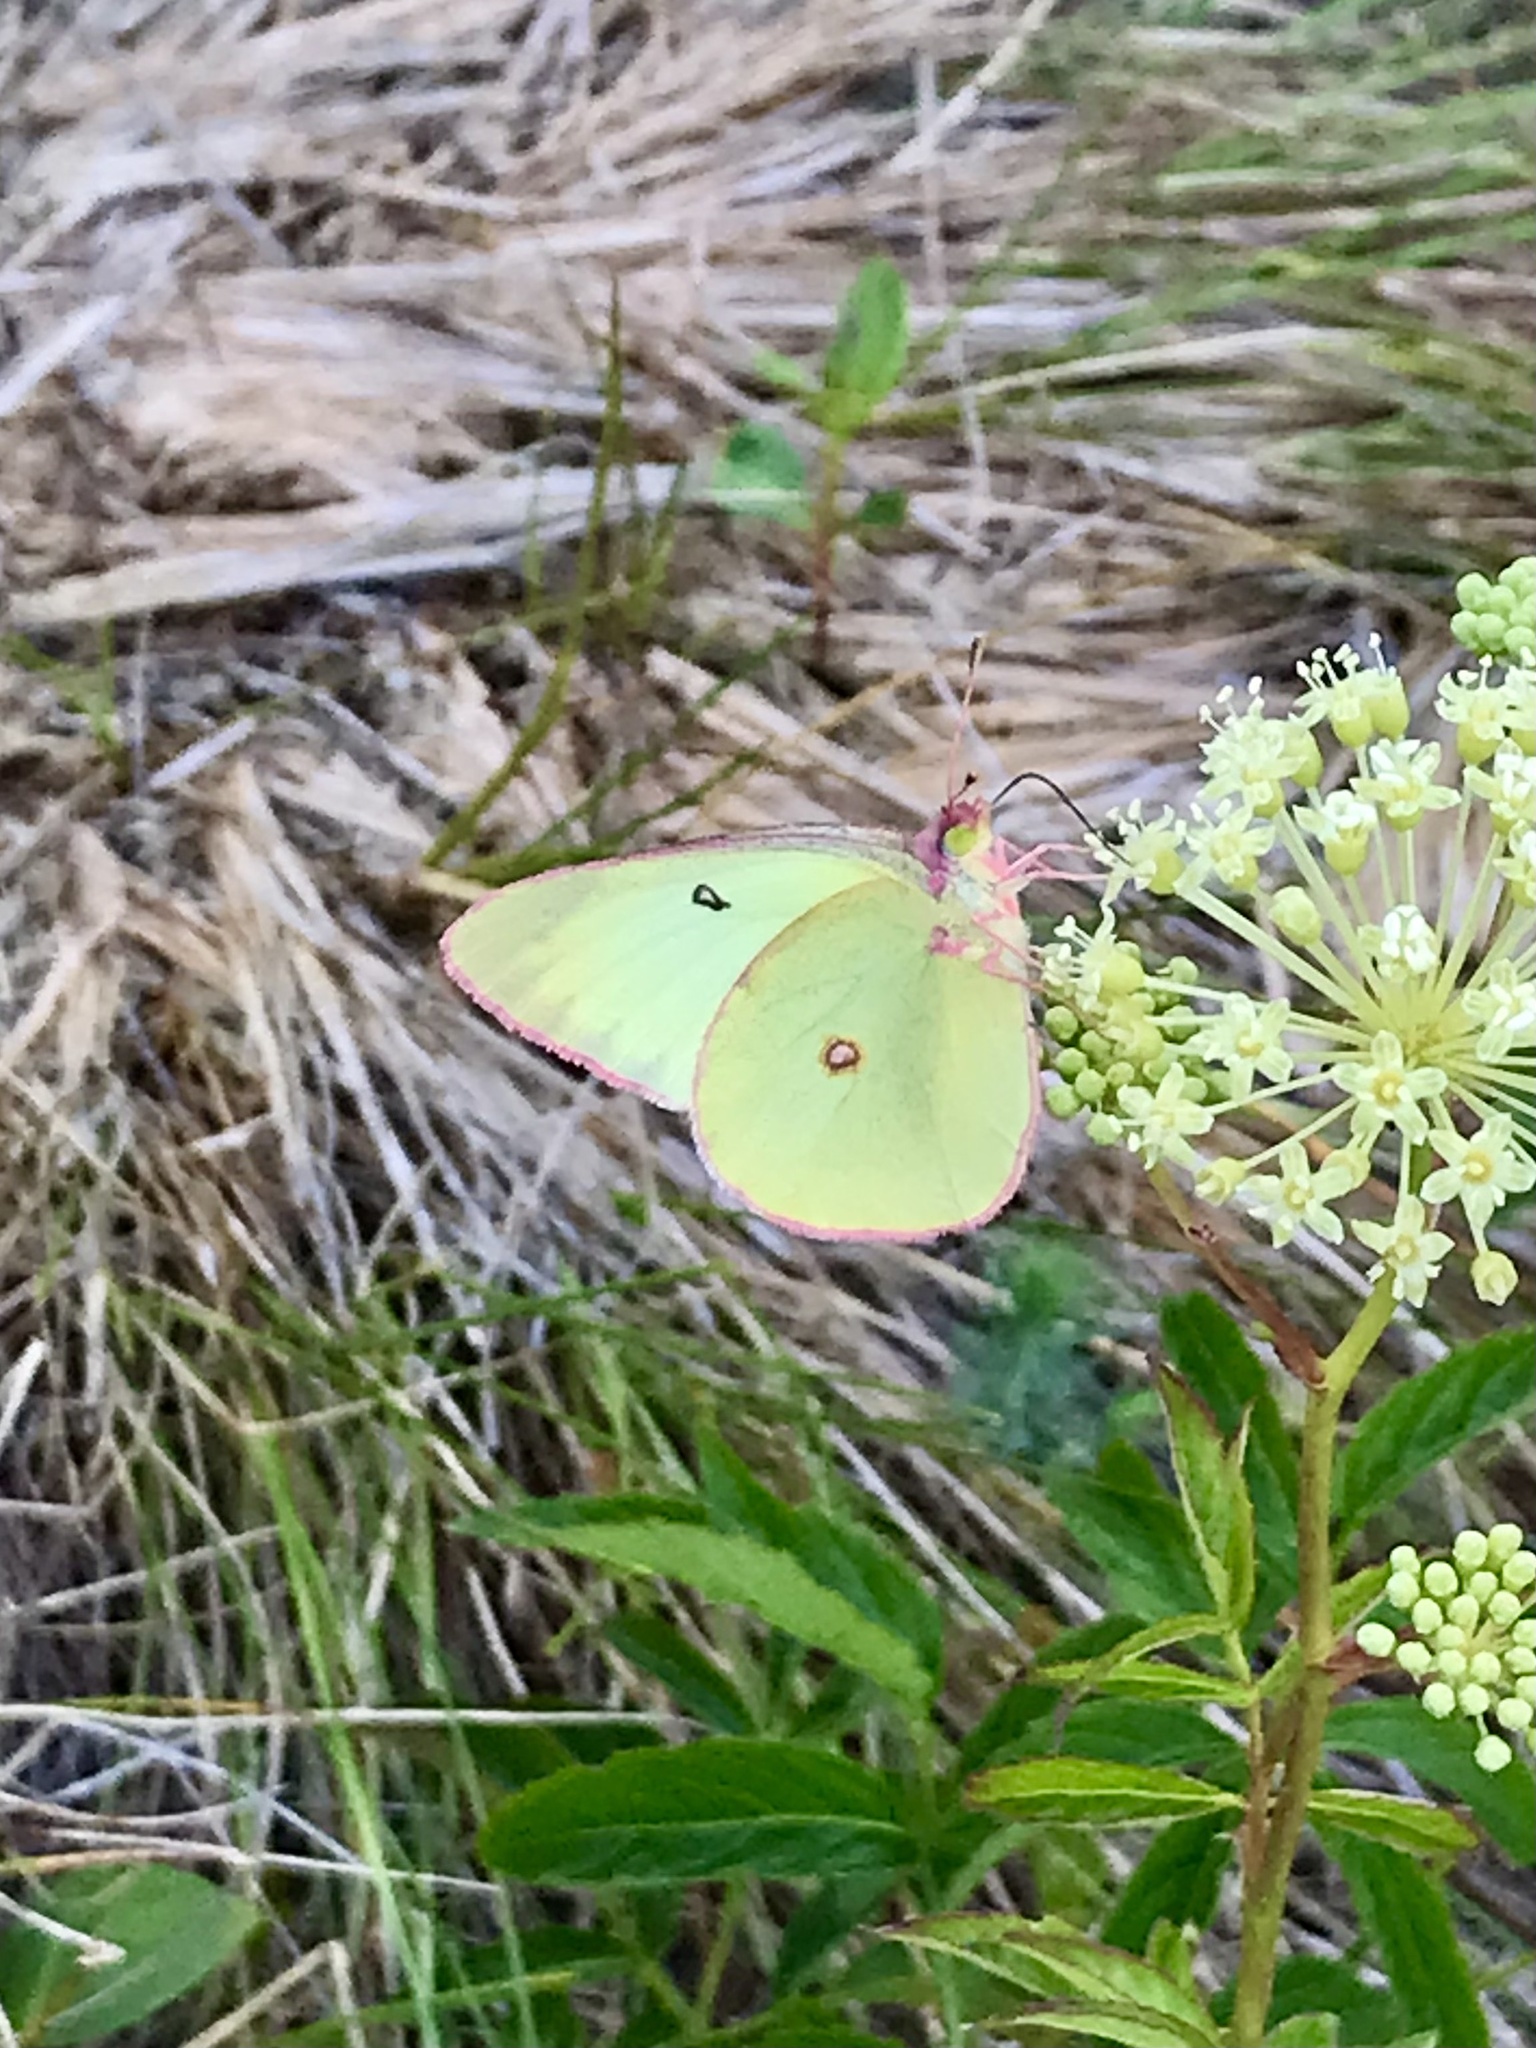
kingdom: Animalia
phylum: Arthropoda
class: Insecta
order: Lepidoptera
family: Pieridae
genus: Colias
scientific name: Colias interior
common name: Pink-edged sulphur
